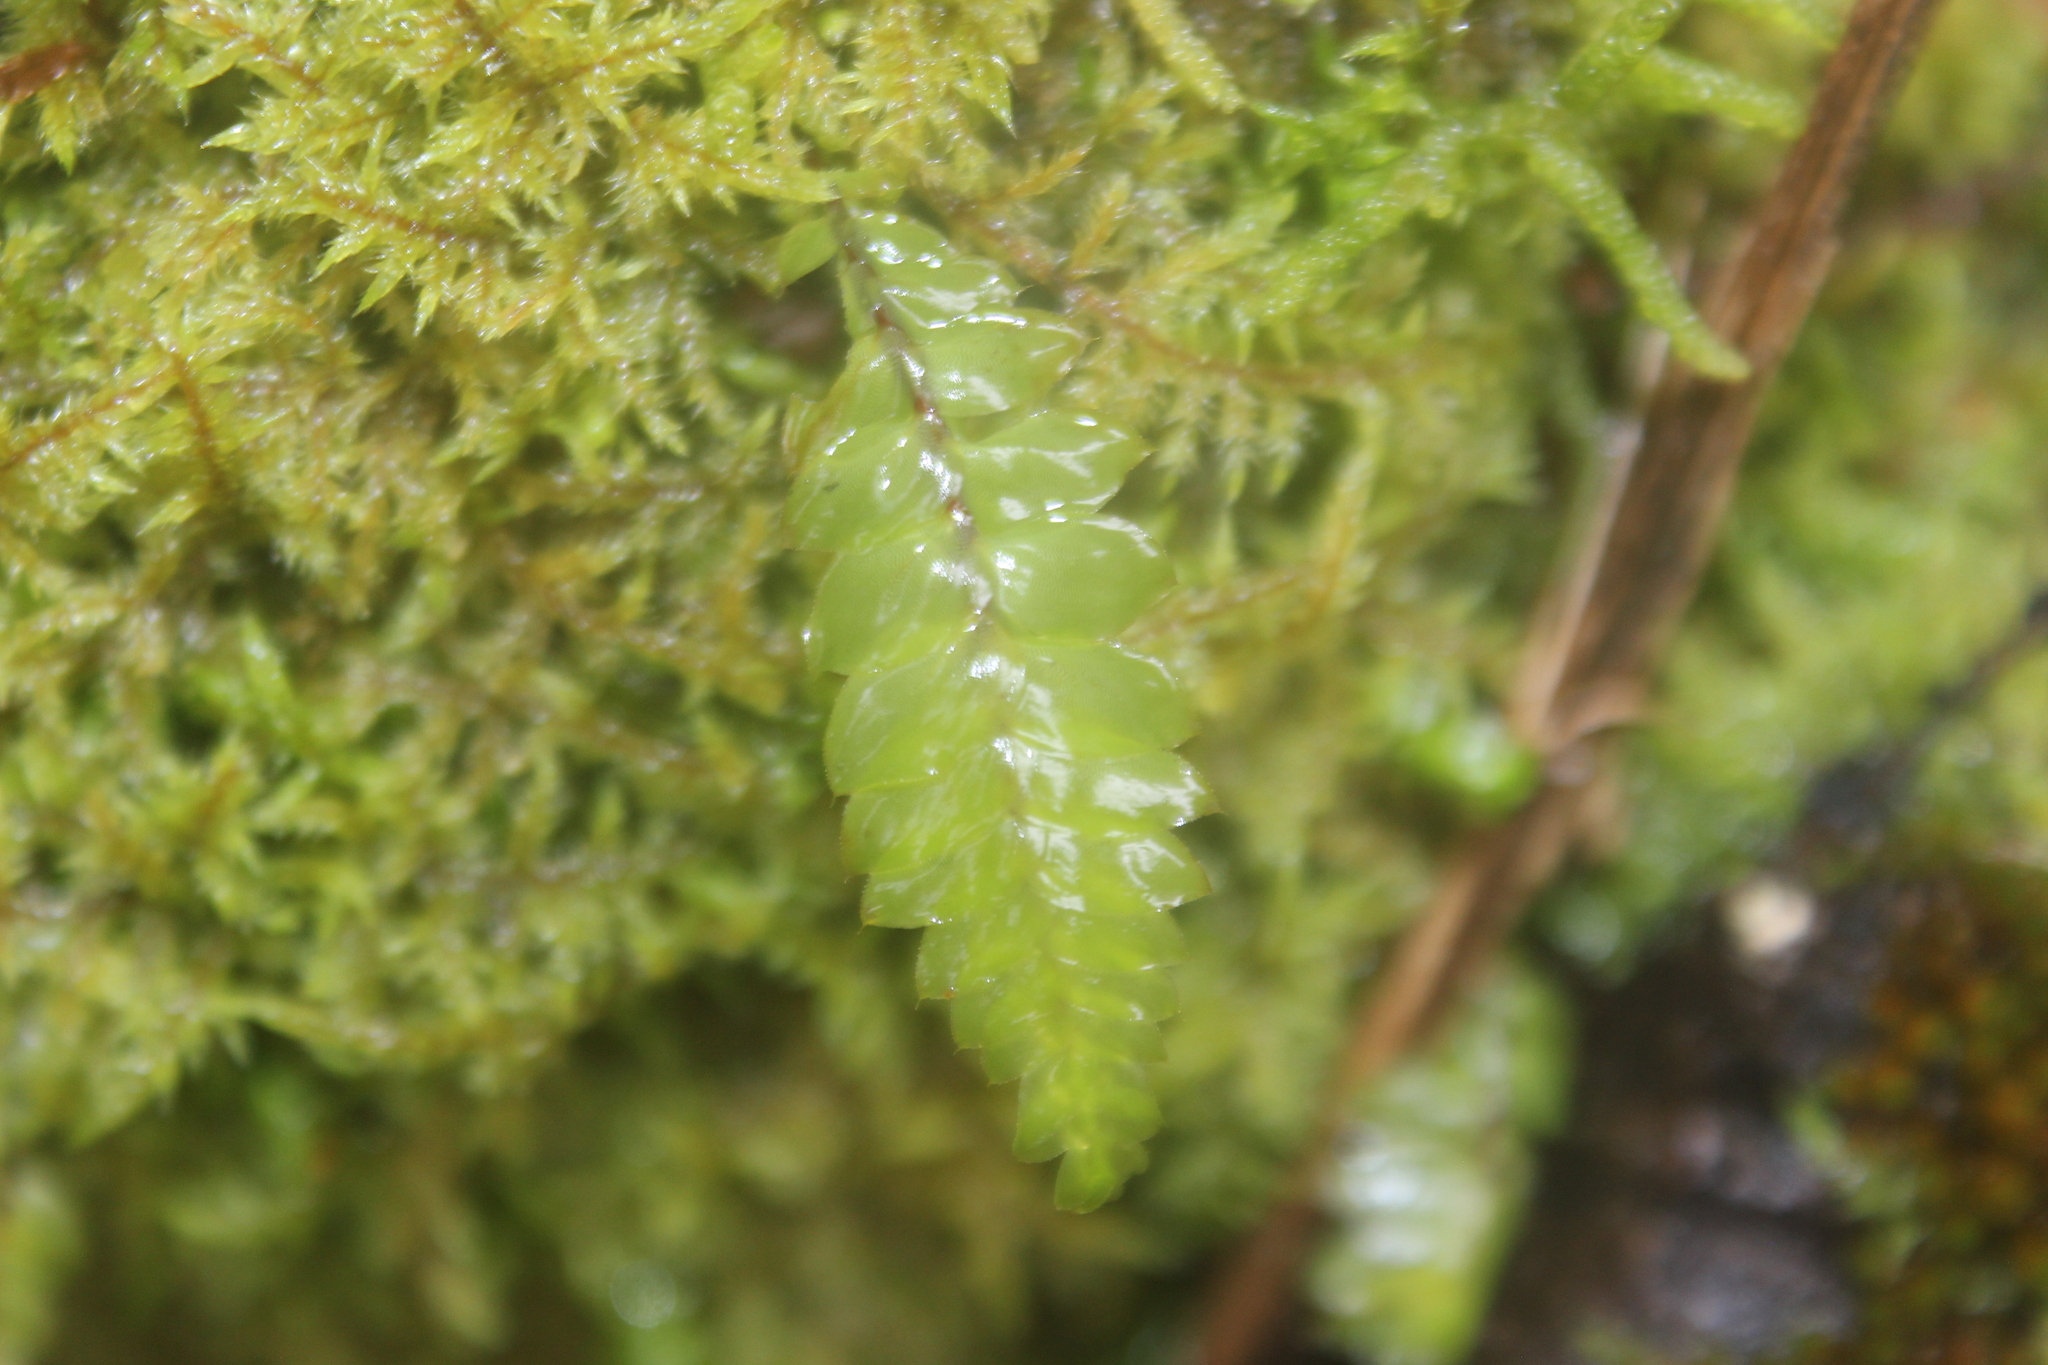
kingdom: Plantae
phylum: Bryophyta
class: Bryopsida
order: Hypopterygiales
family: Hypopterygiaceae
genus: Cyathophorum
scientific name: Cyathophorum bulbosum
